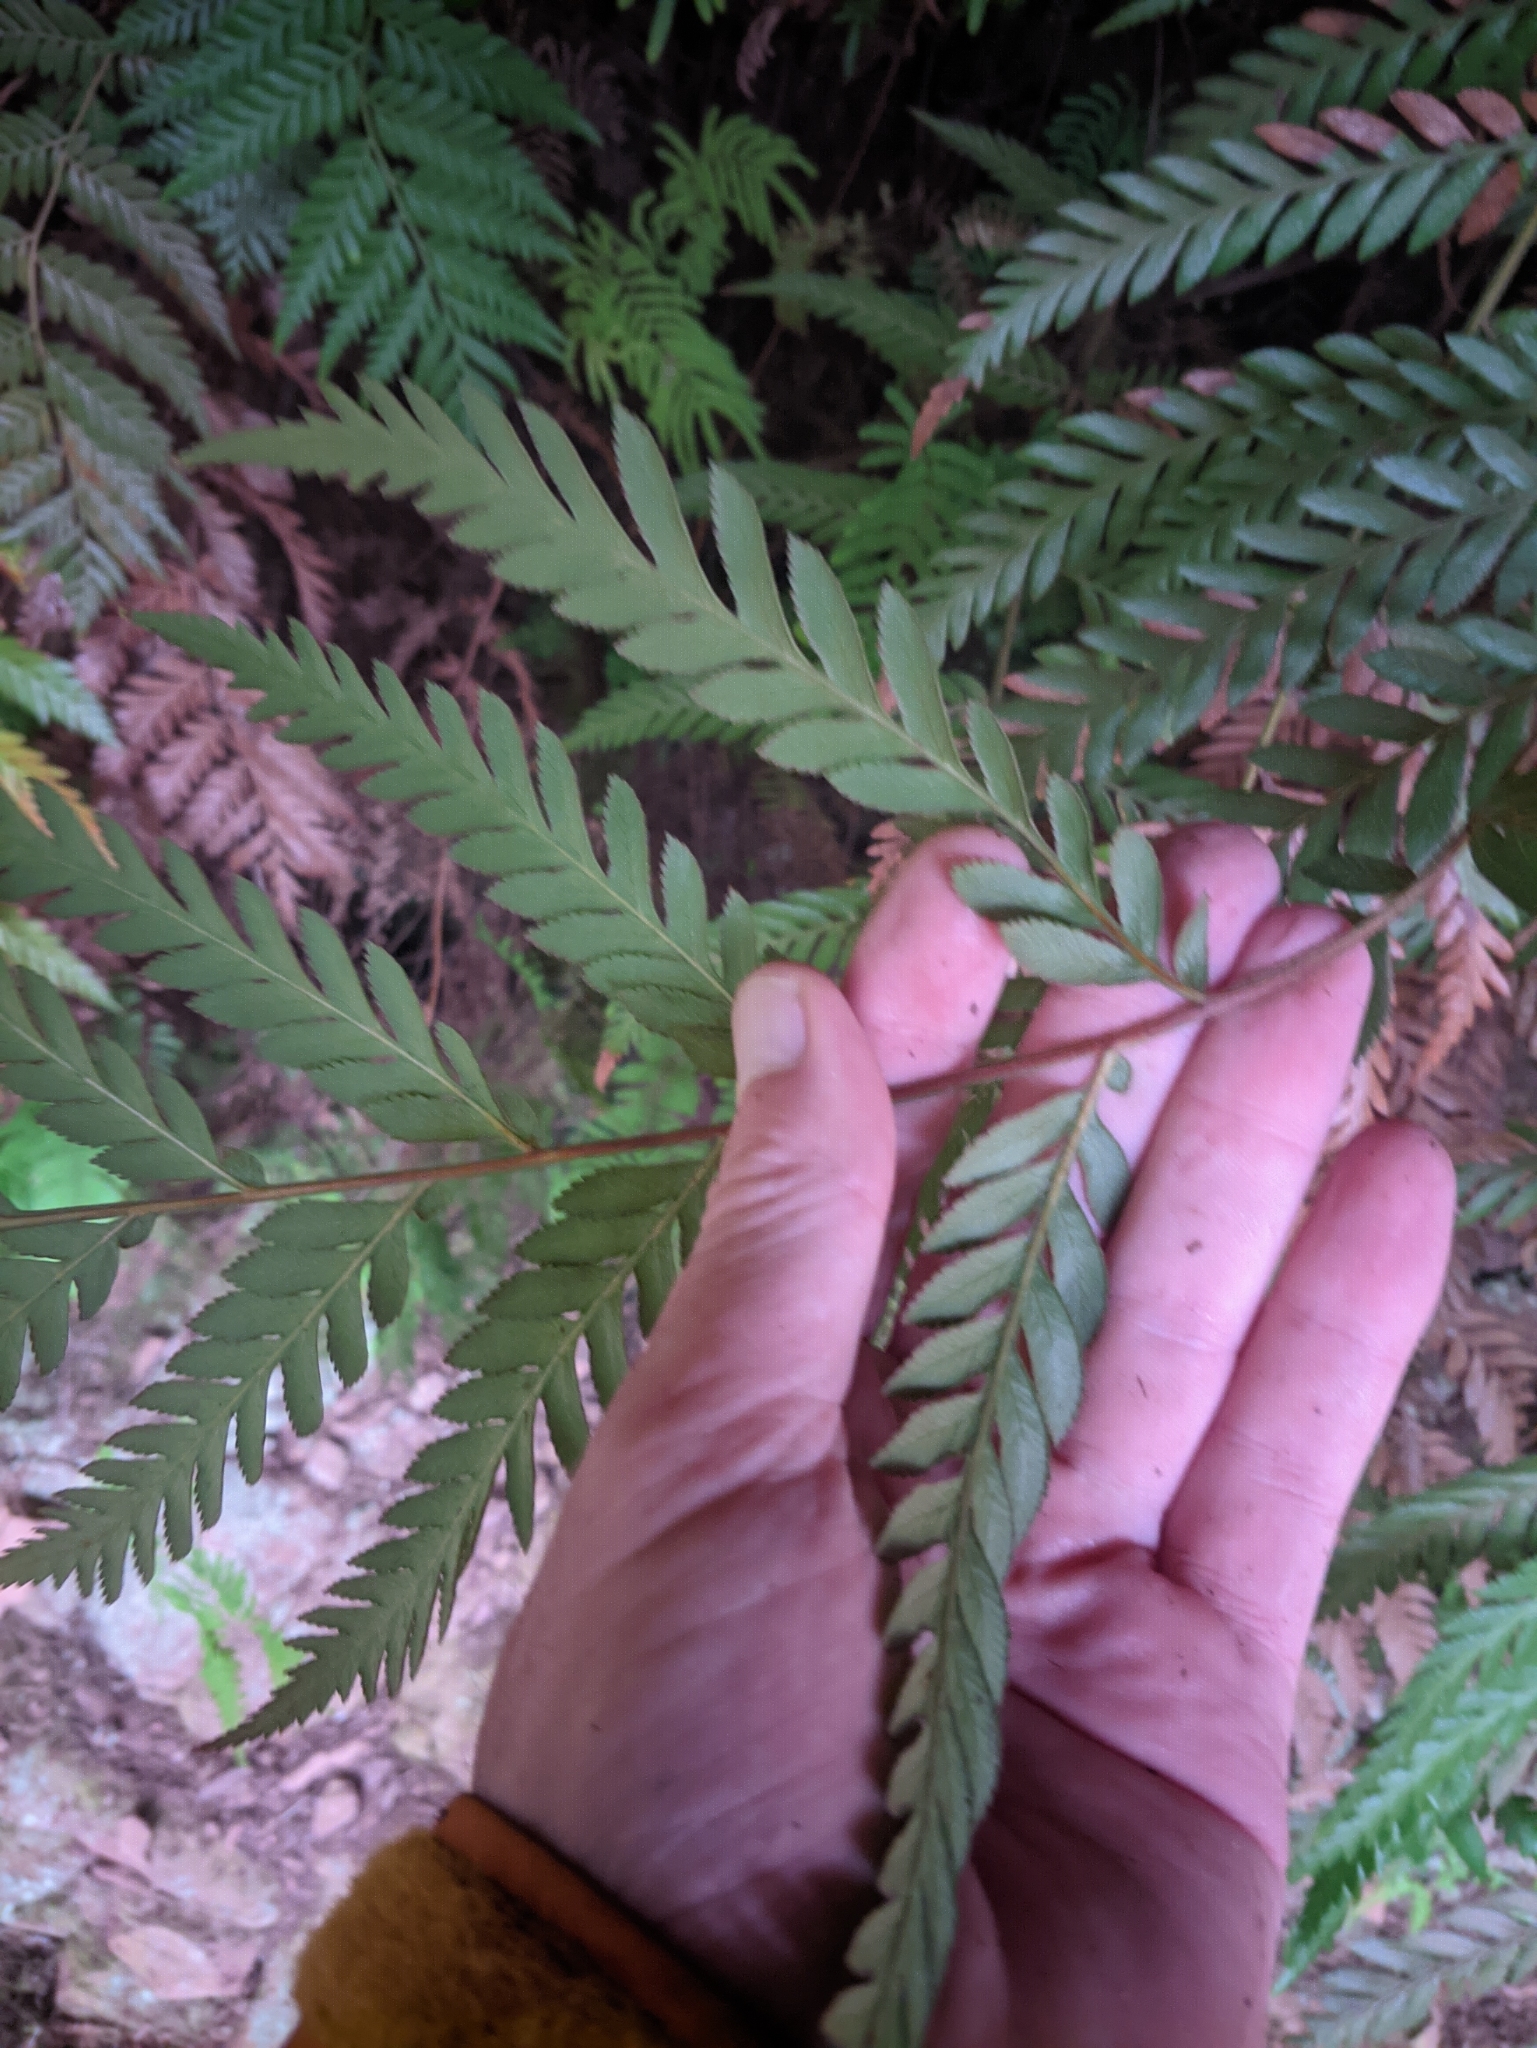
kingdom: Plantae
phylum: Tracheophyta
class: Polypodiopsida
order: Osmundales
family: Osmundaceae
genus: Todea
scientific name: Todea barbara
